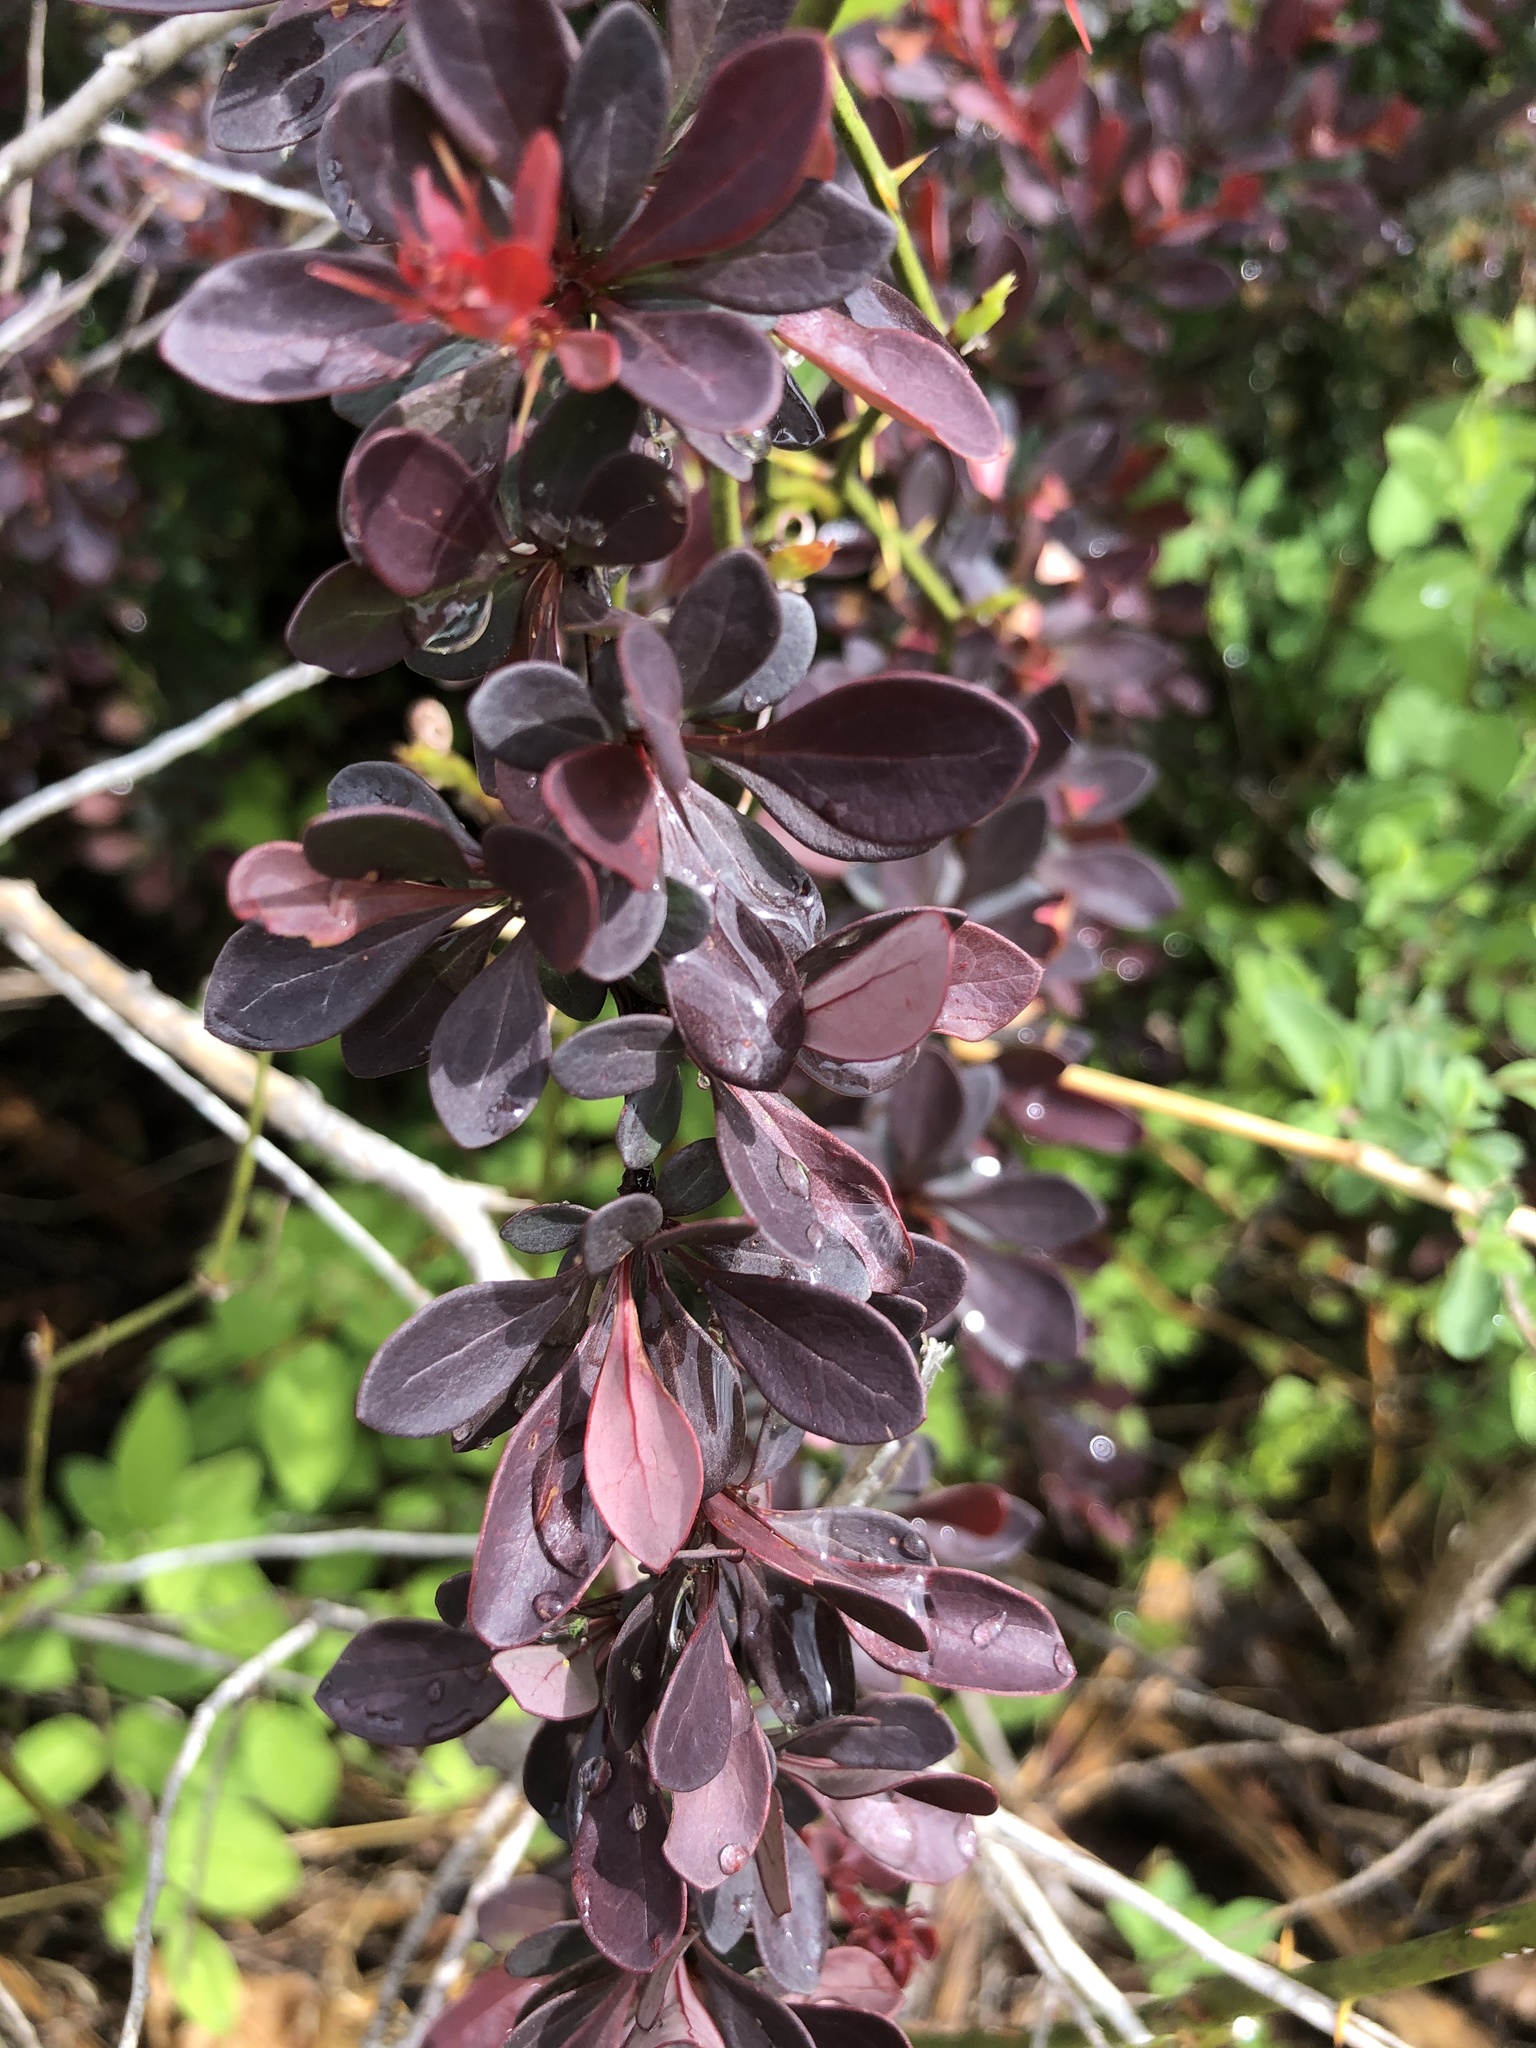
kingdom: Plantae
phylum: Tracheophyta
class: Magnoliopsida
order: Ranunculales
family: Berberidaceae
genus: Berberis
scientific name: Berberis thunbergii
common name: Japanese barberry
